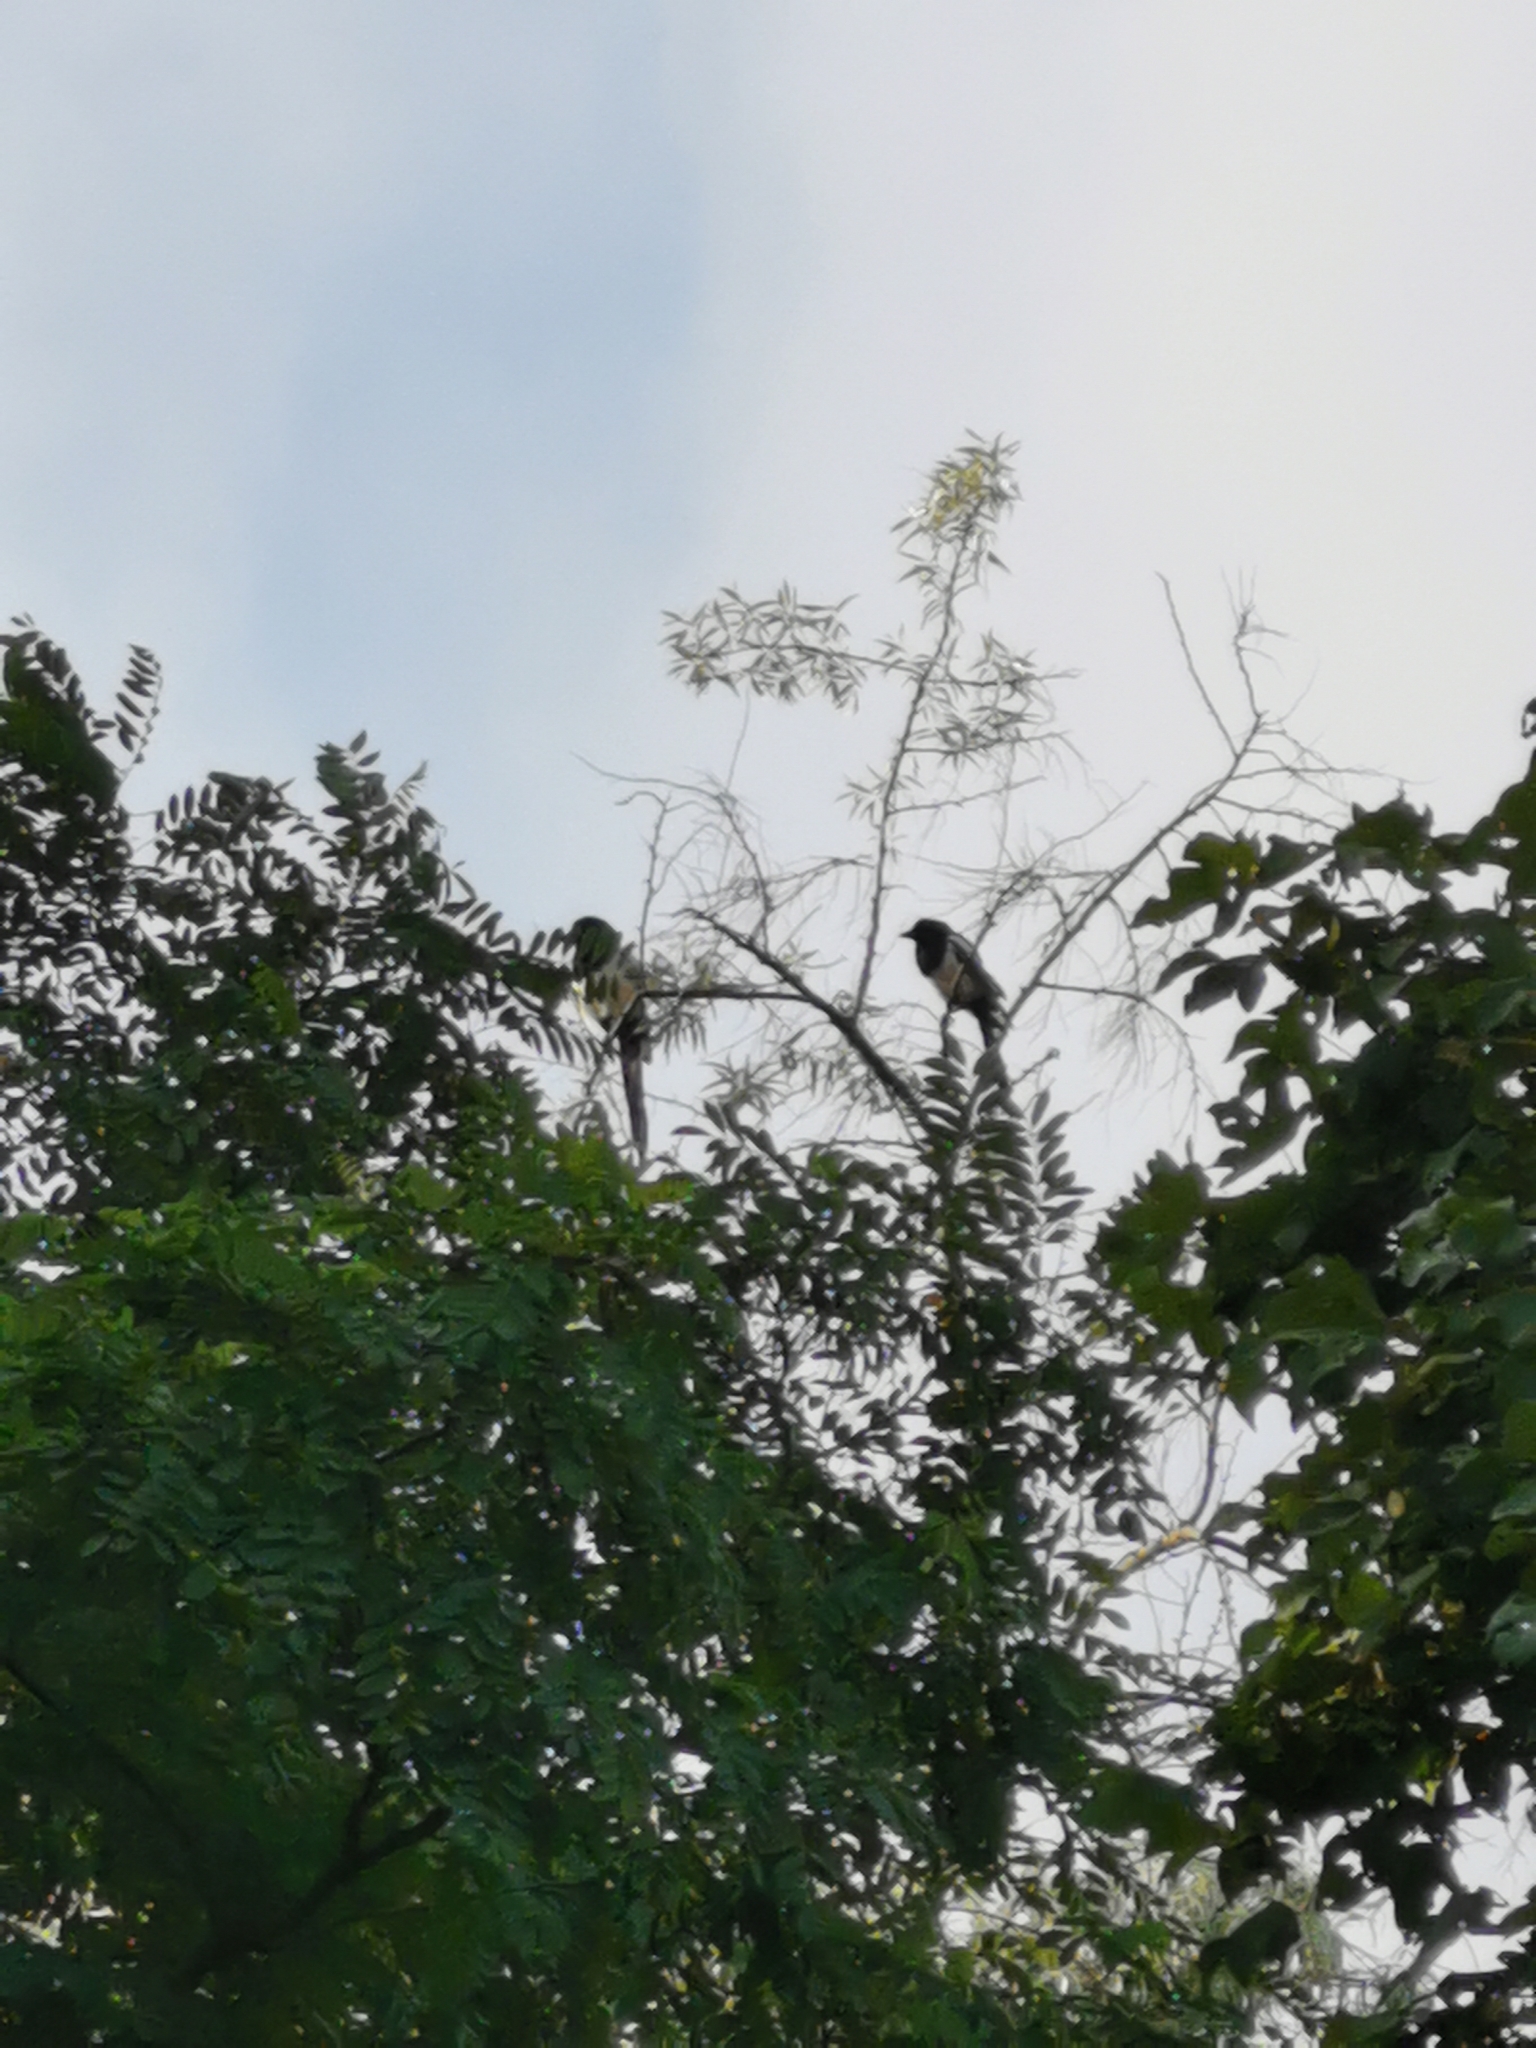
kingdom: Animalia
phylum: Chordata
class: Aves
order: Passeriformes
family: Corvidae
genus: Pica
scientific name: Pica pica
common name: Eurasian magpie
